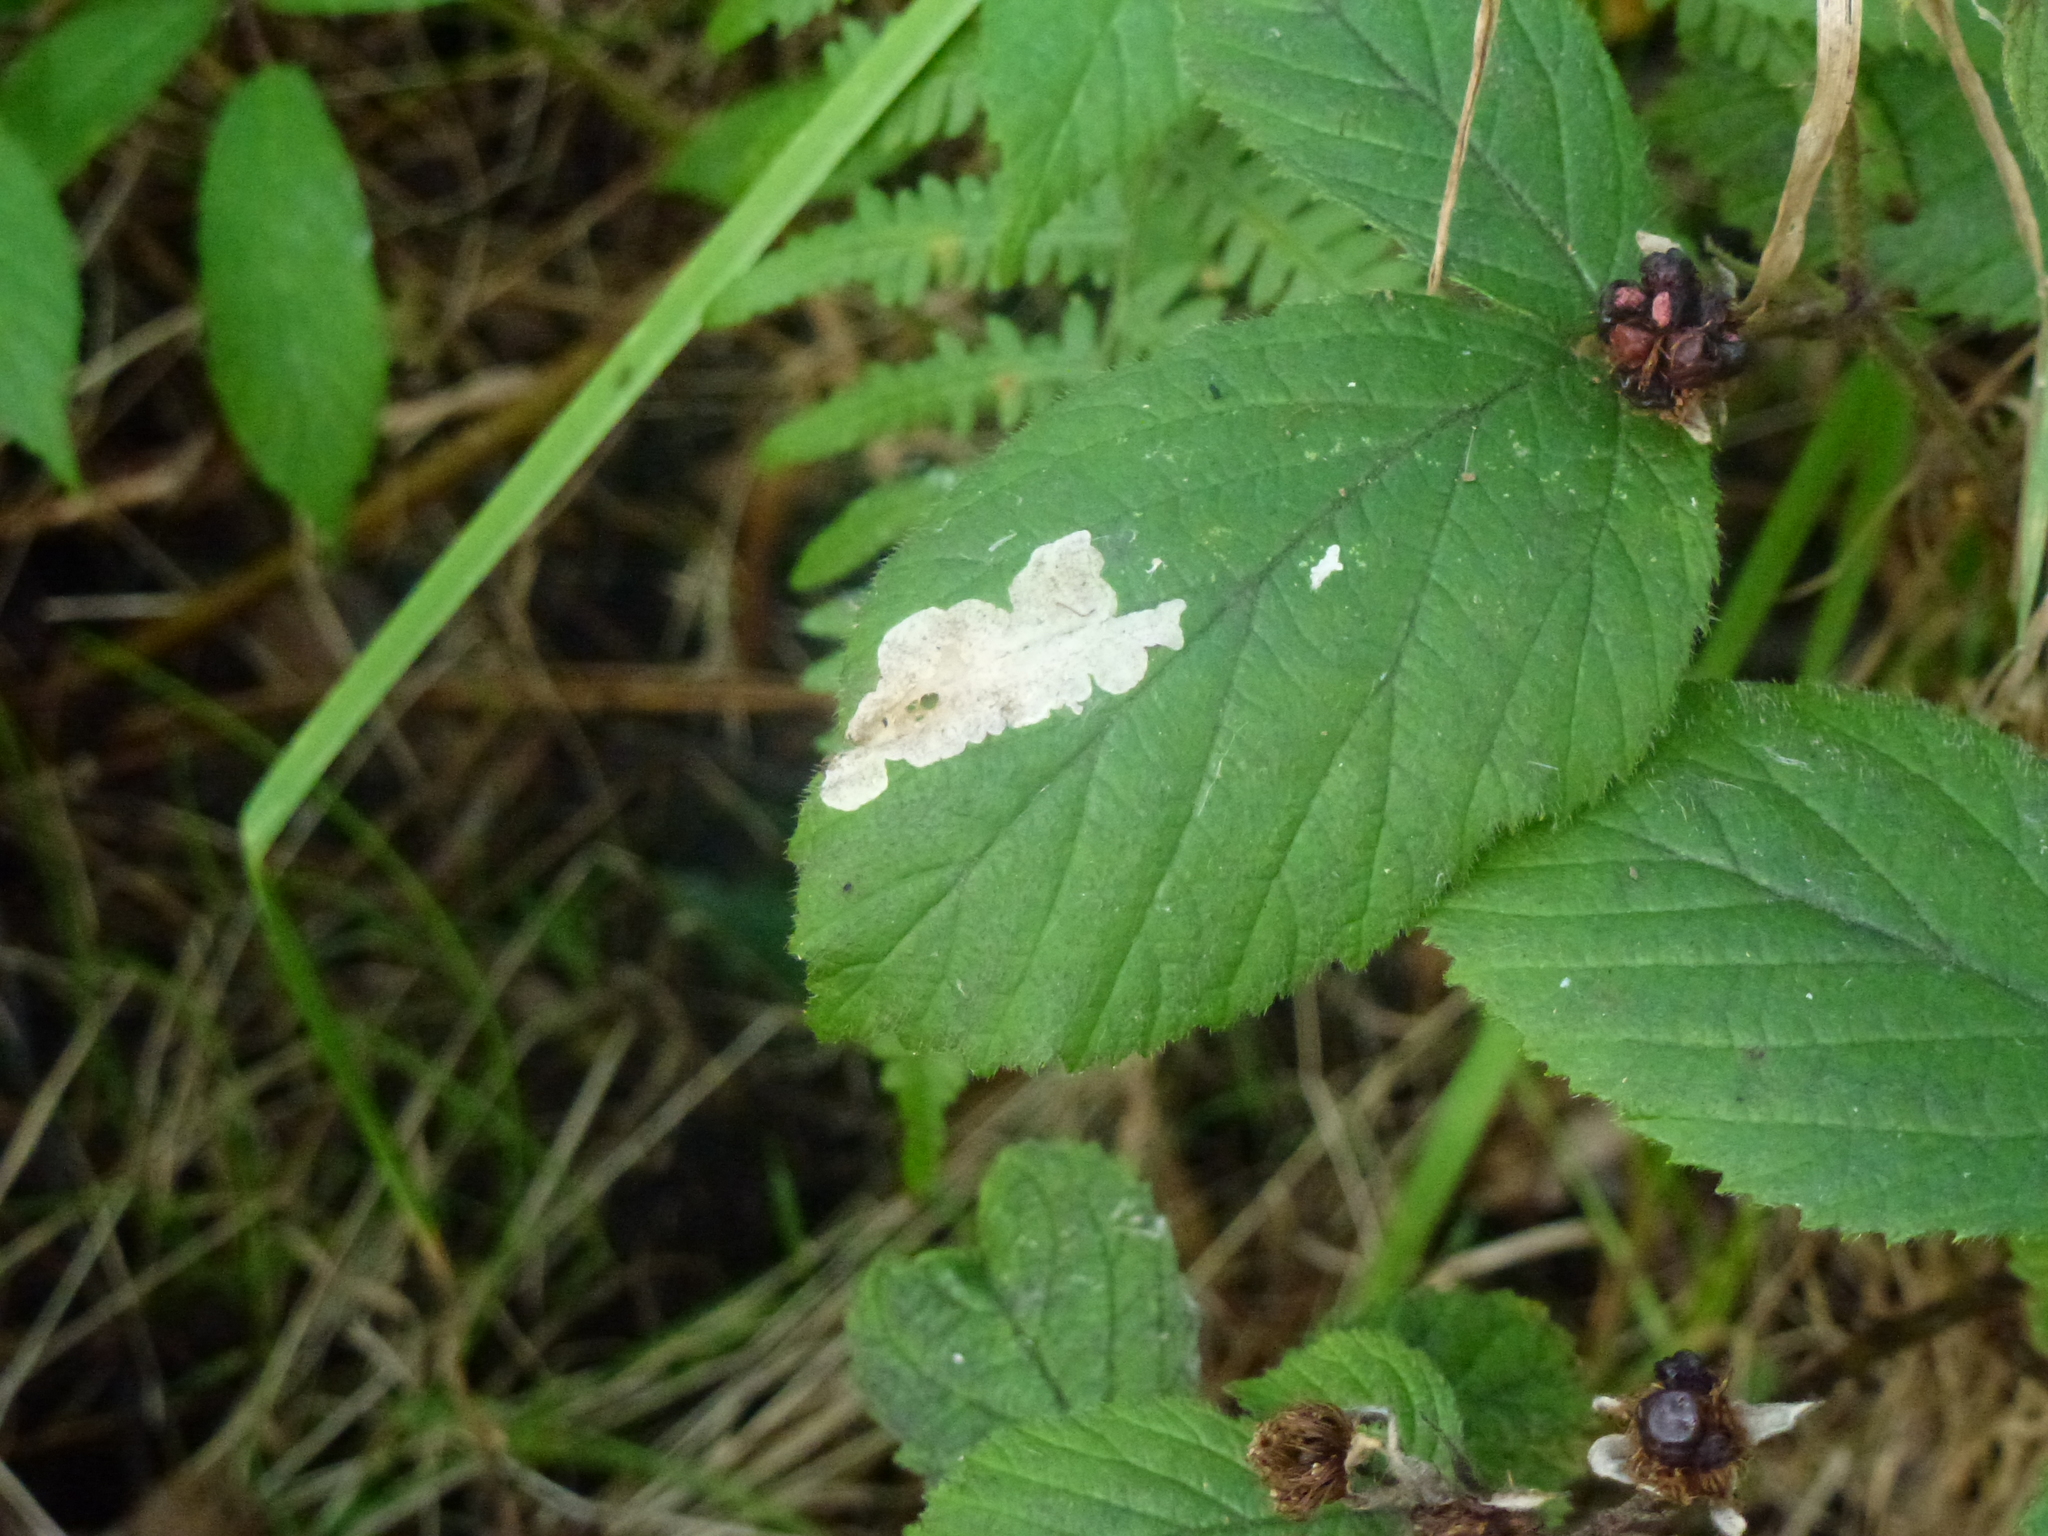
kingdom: Animalia
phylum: Arthropoda
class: Insecta
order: Lepidoptera
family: Tischeriidae
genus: Coptotriche
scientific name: Coptotriche marginea
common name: Bordered carl
